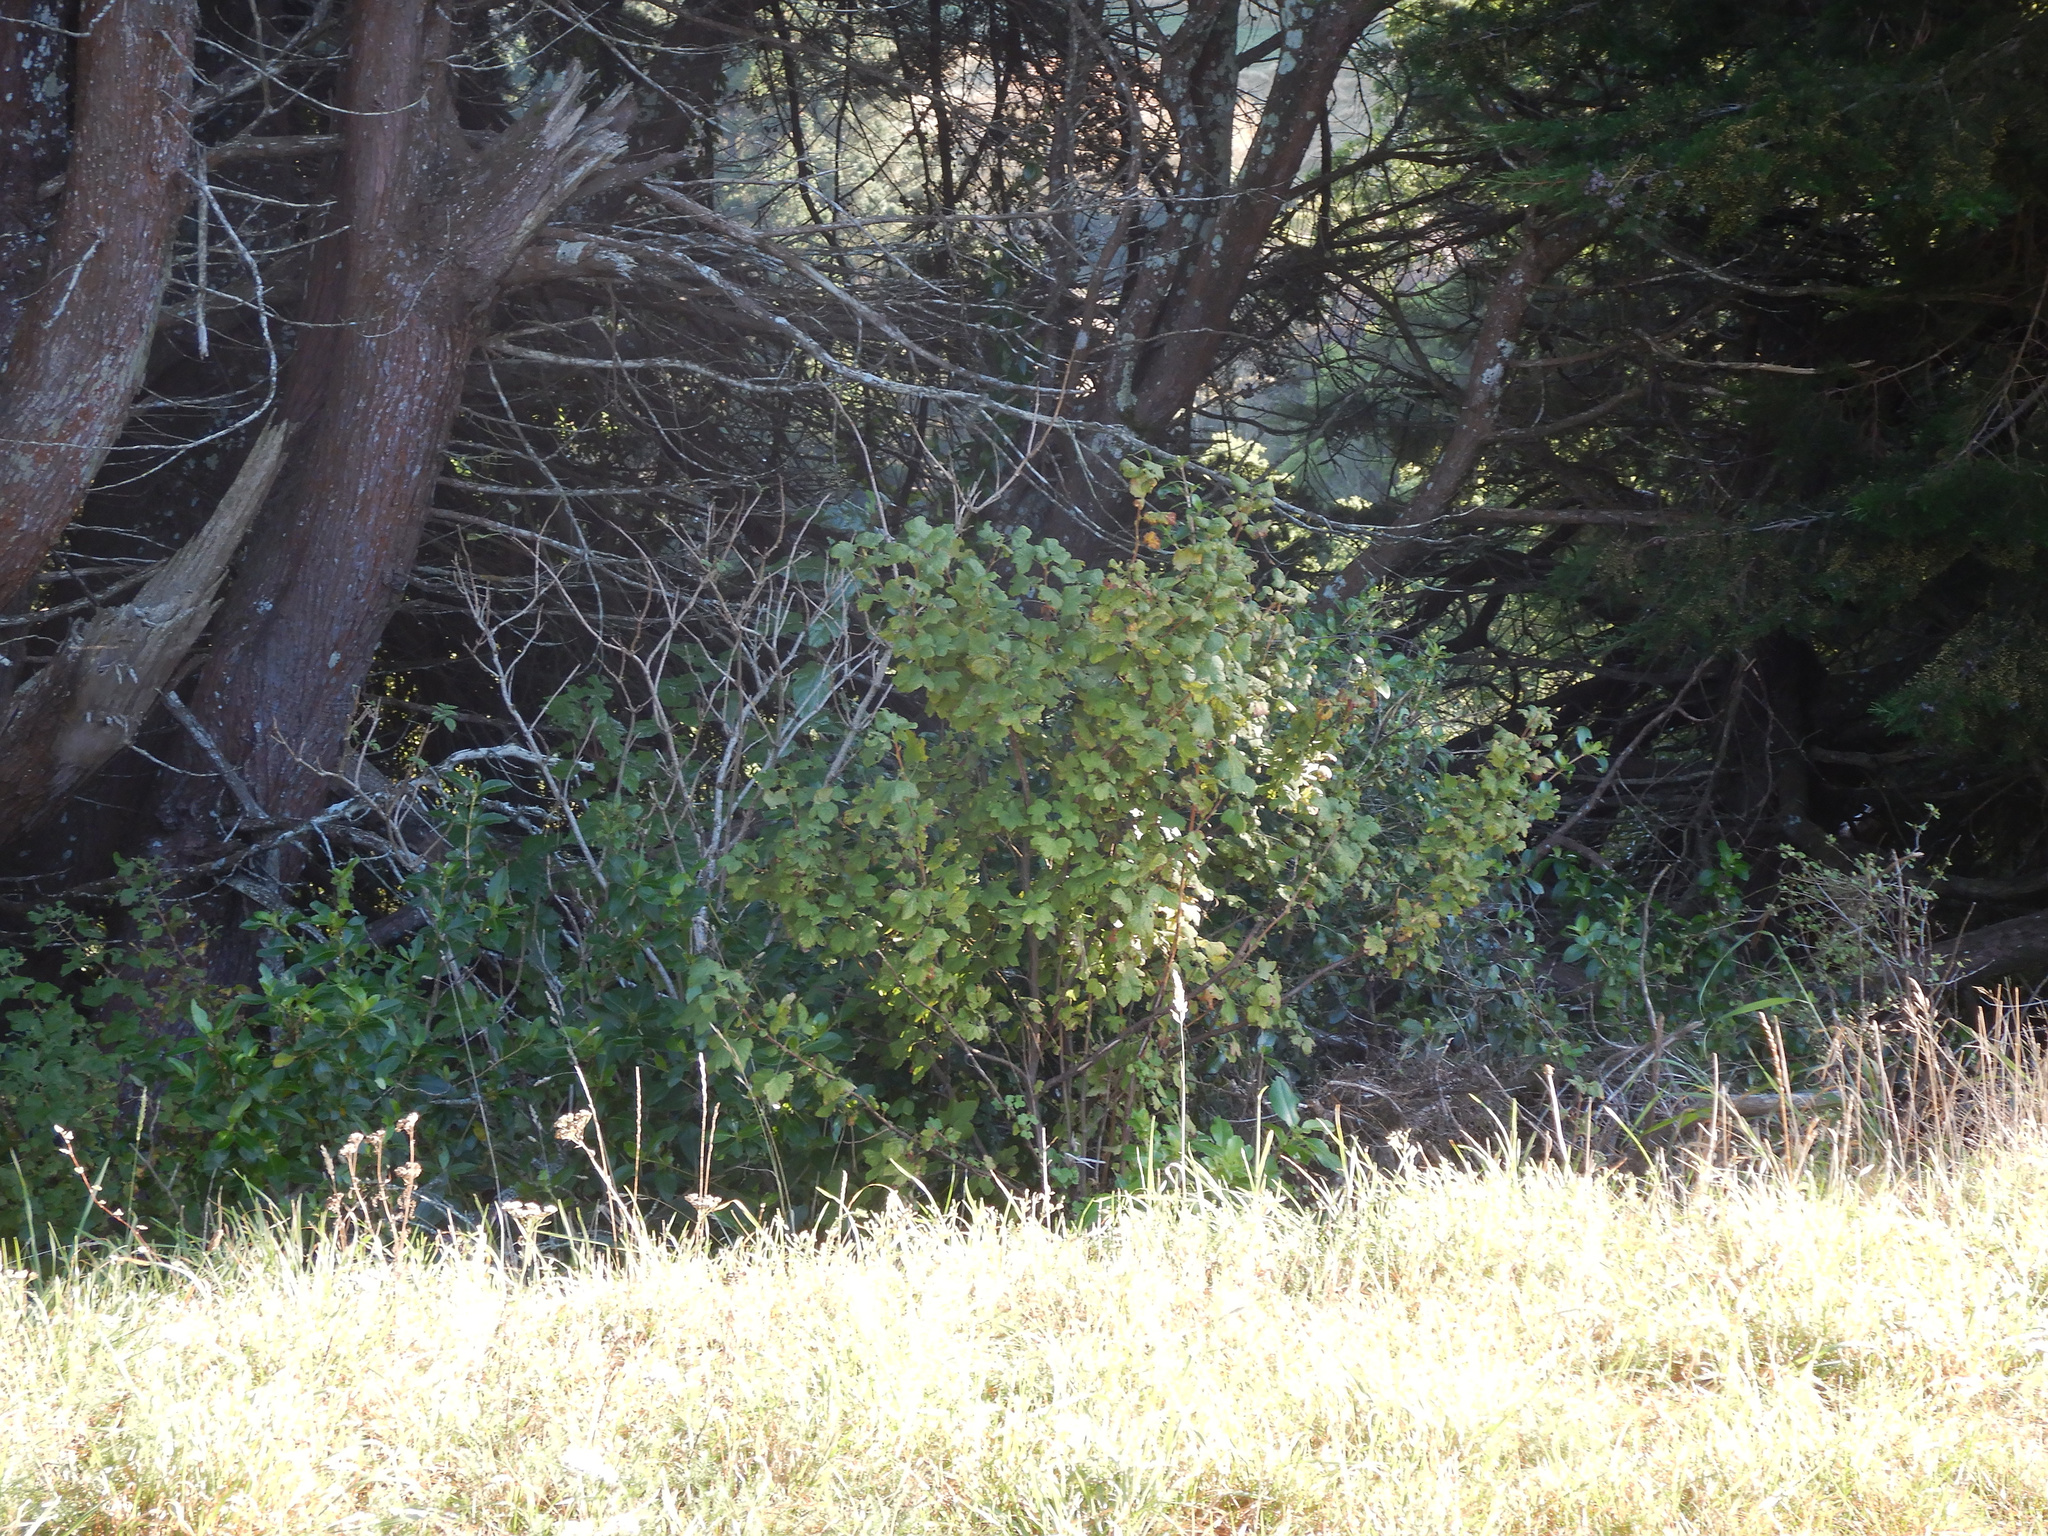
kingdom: Plantae
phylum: Tracheophyta
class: Magnoliopsida
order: Saxifragales
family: Grossulariaceae
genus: Ribes
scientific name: Ribes sanguineum
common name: Flowering currant
